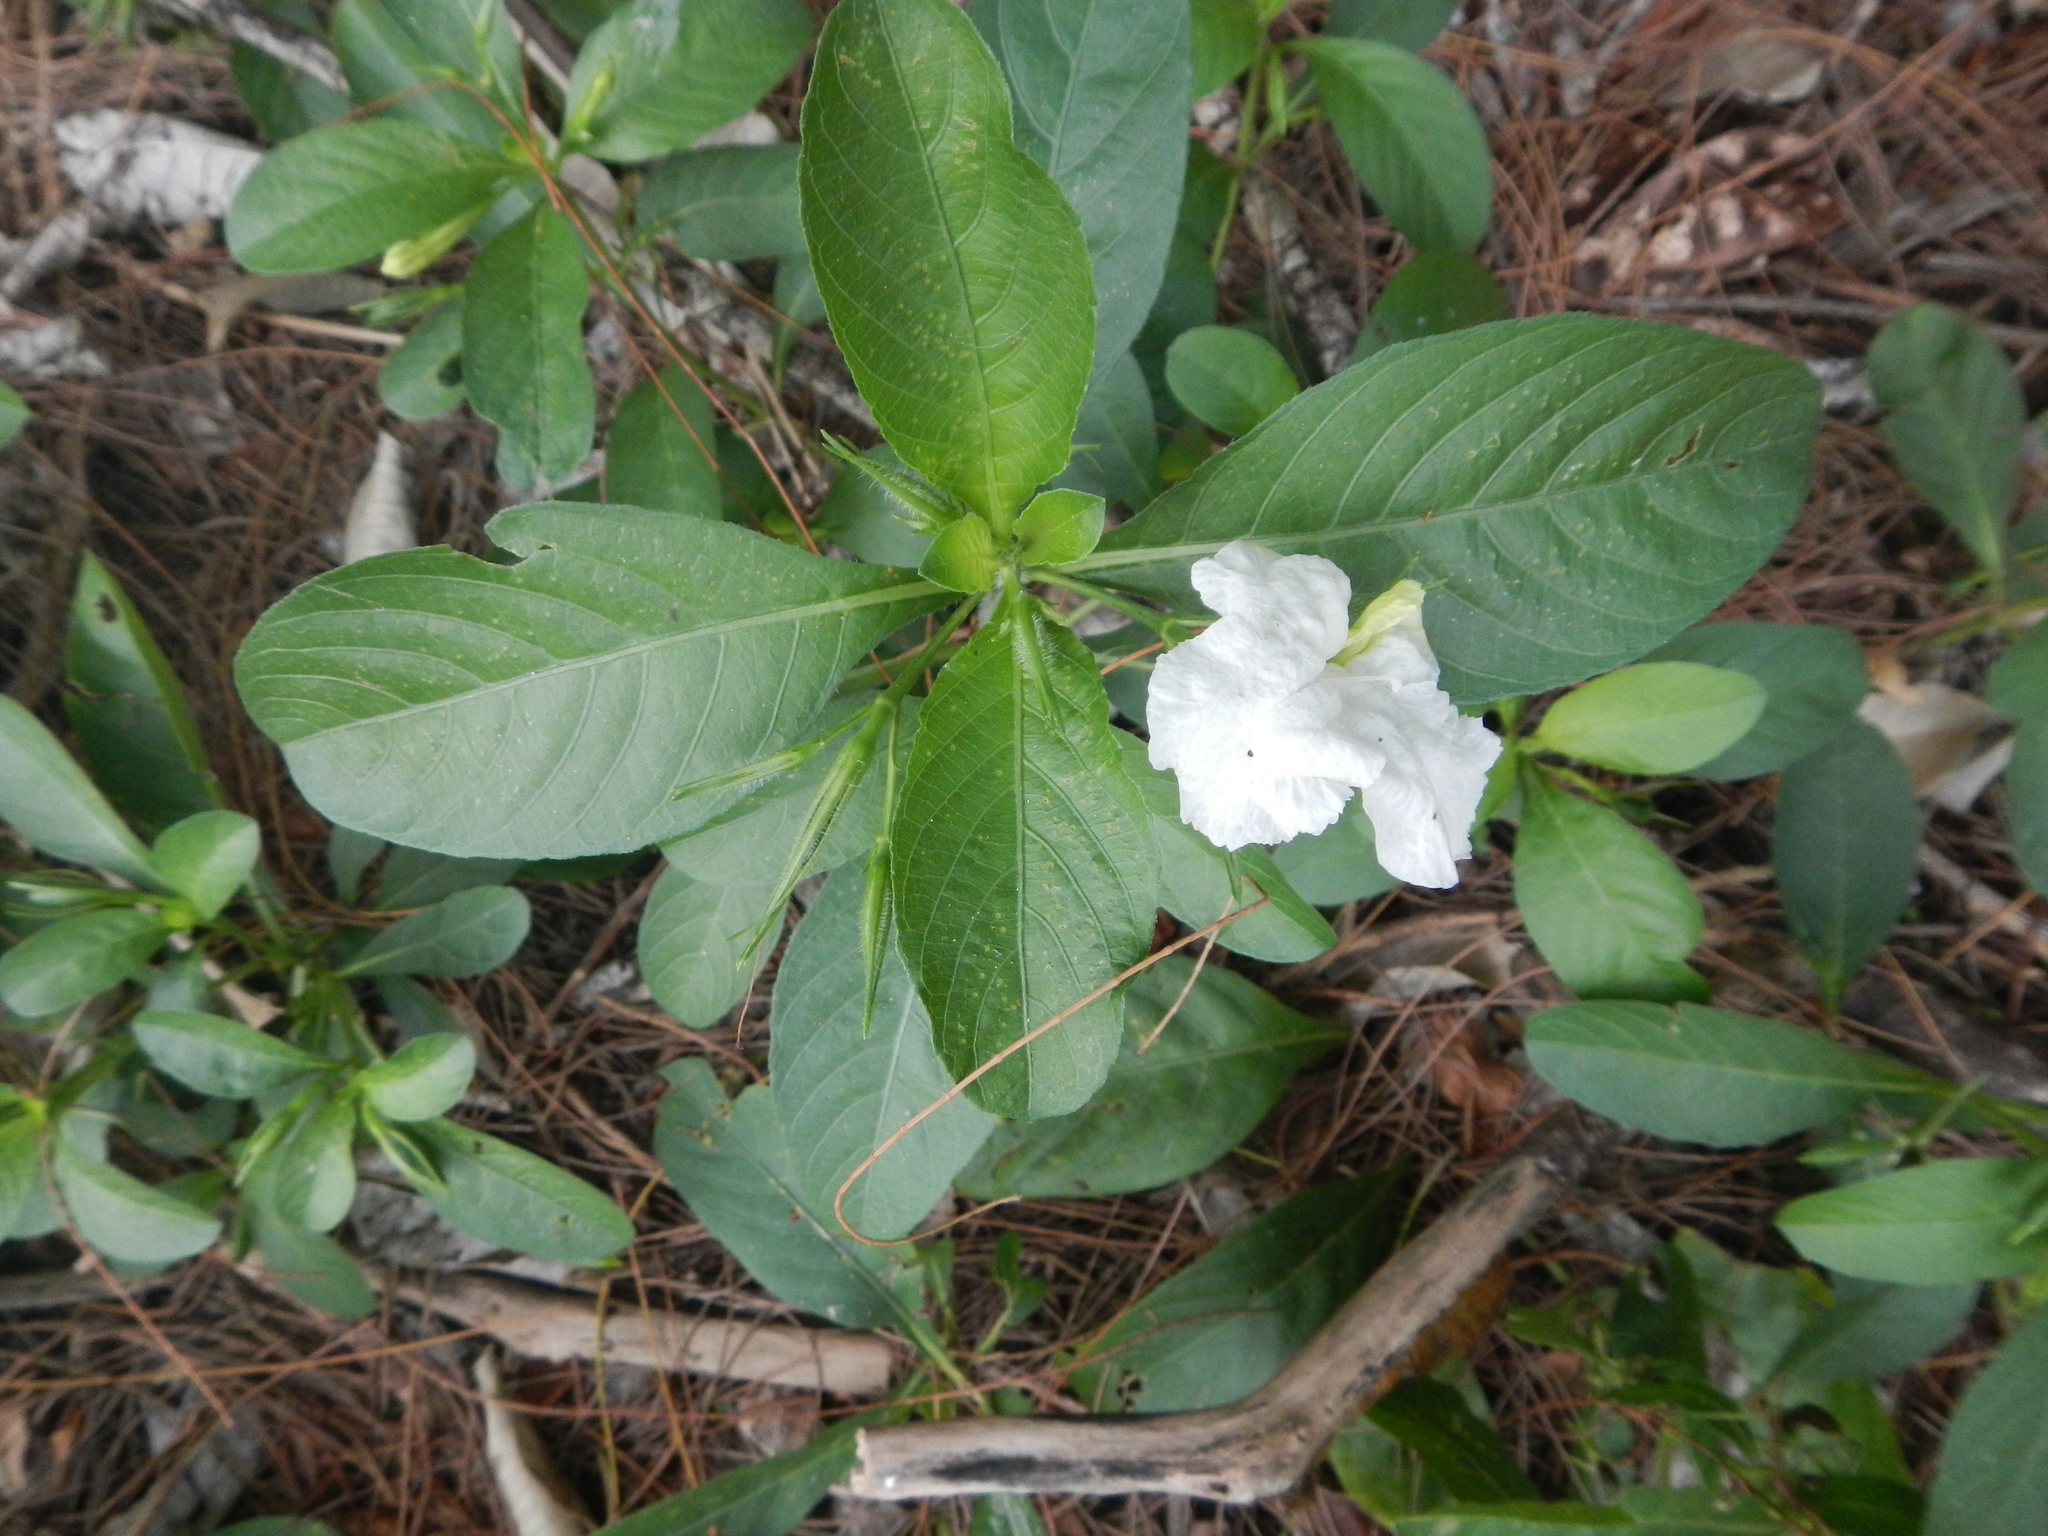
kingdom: Plantae
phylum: Tracheophyta
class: Magnoliopsida
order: Lamiales
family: Acanthaceae
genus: Ruellia
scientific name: Ruellia tuberosa
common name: Devil's bit
